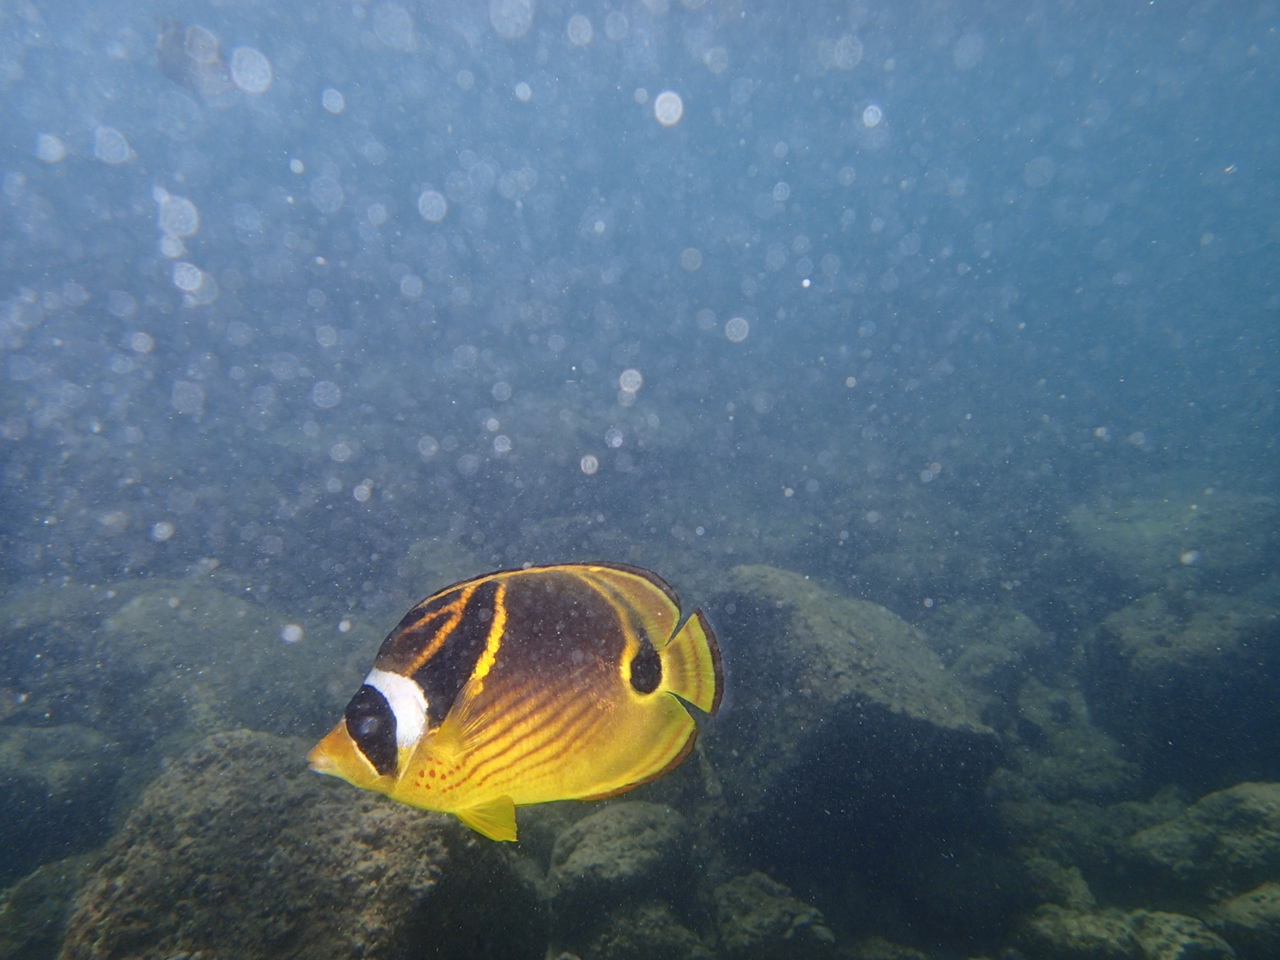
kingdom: Animalia
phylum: Chordata
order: Perciformes
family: Chaetodontidae
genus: Chaetodon
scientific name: Chaetodon lunula
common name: Raccoon butterflyfish
